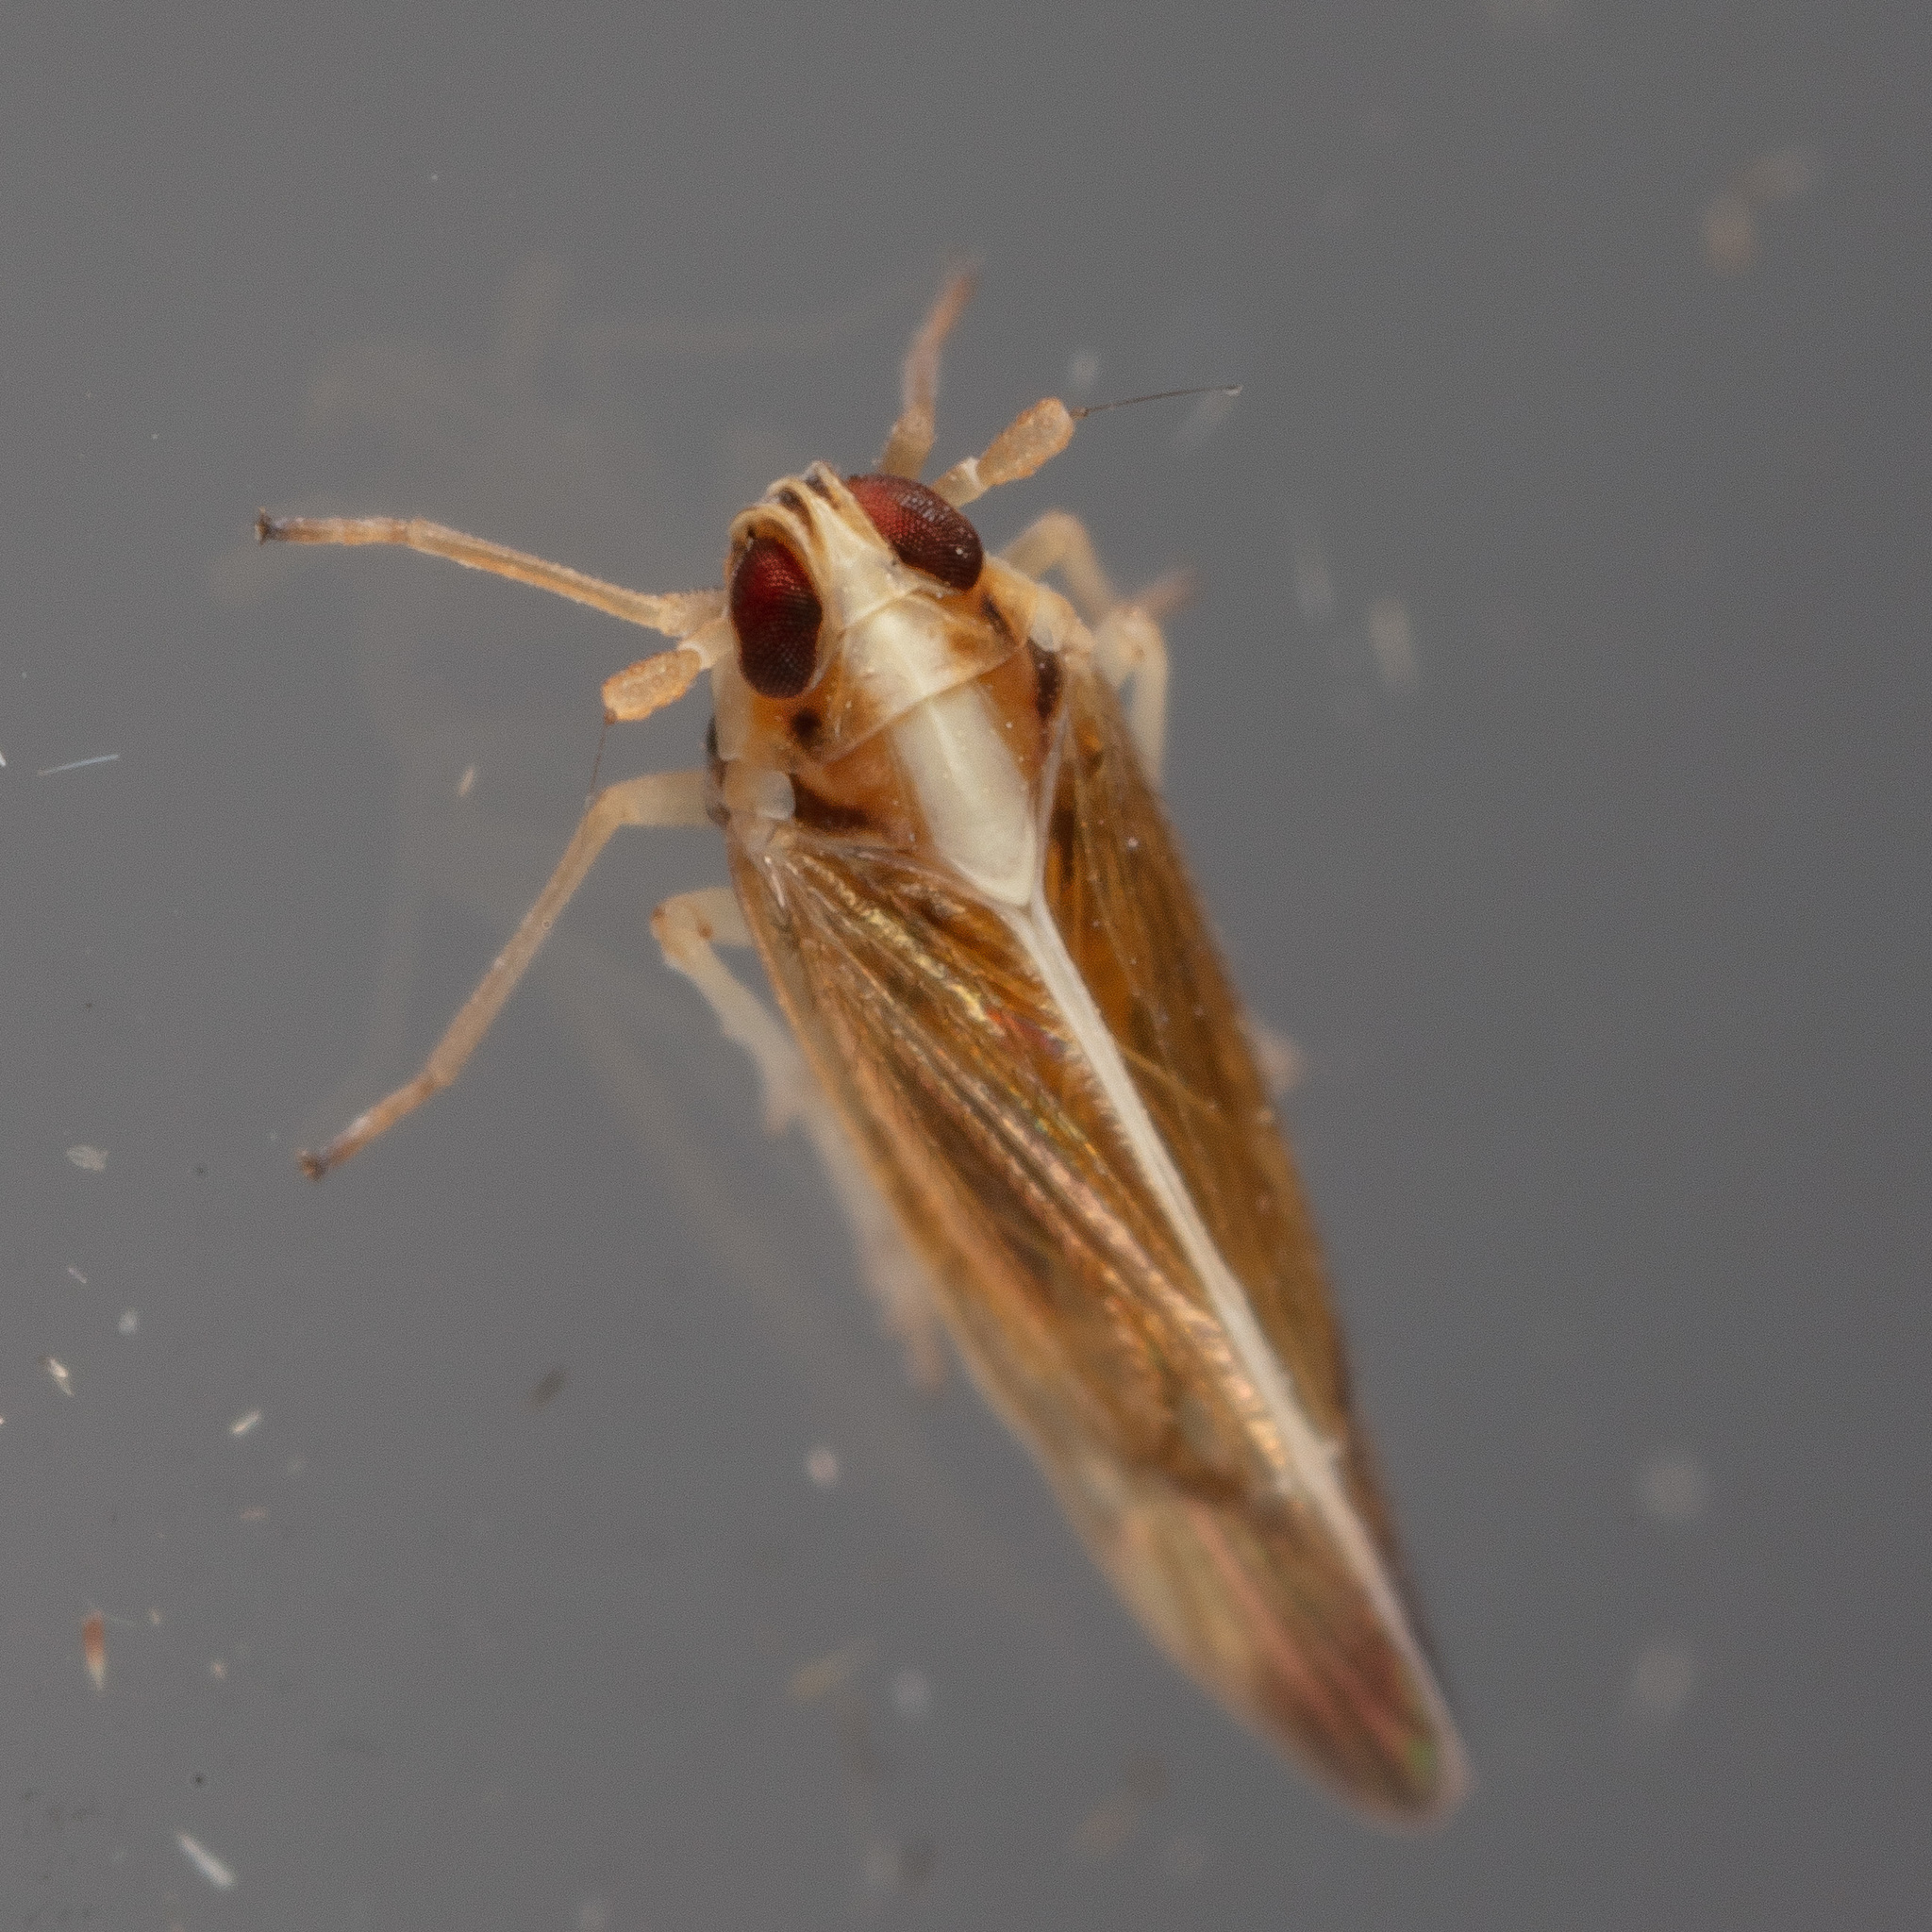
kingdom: Animalia
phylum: Arthropoda
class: Insecta
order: Hemiptera
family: Delphacidae
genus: Tagosodes
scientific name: Tagosodes orizicolus
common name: Delphacid planthopper
